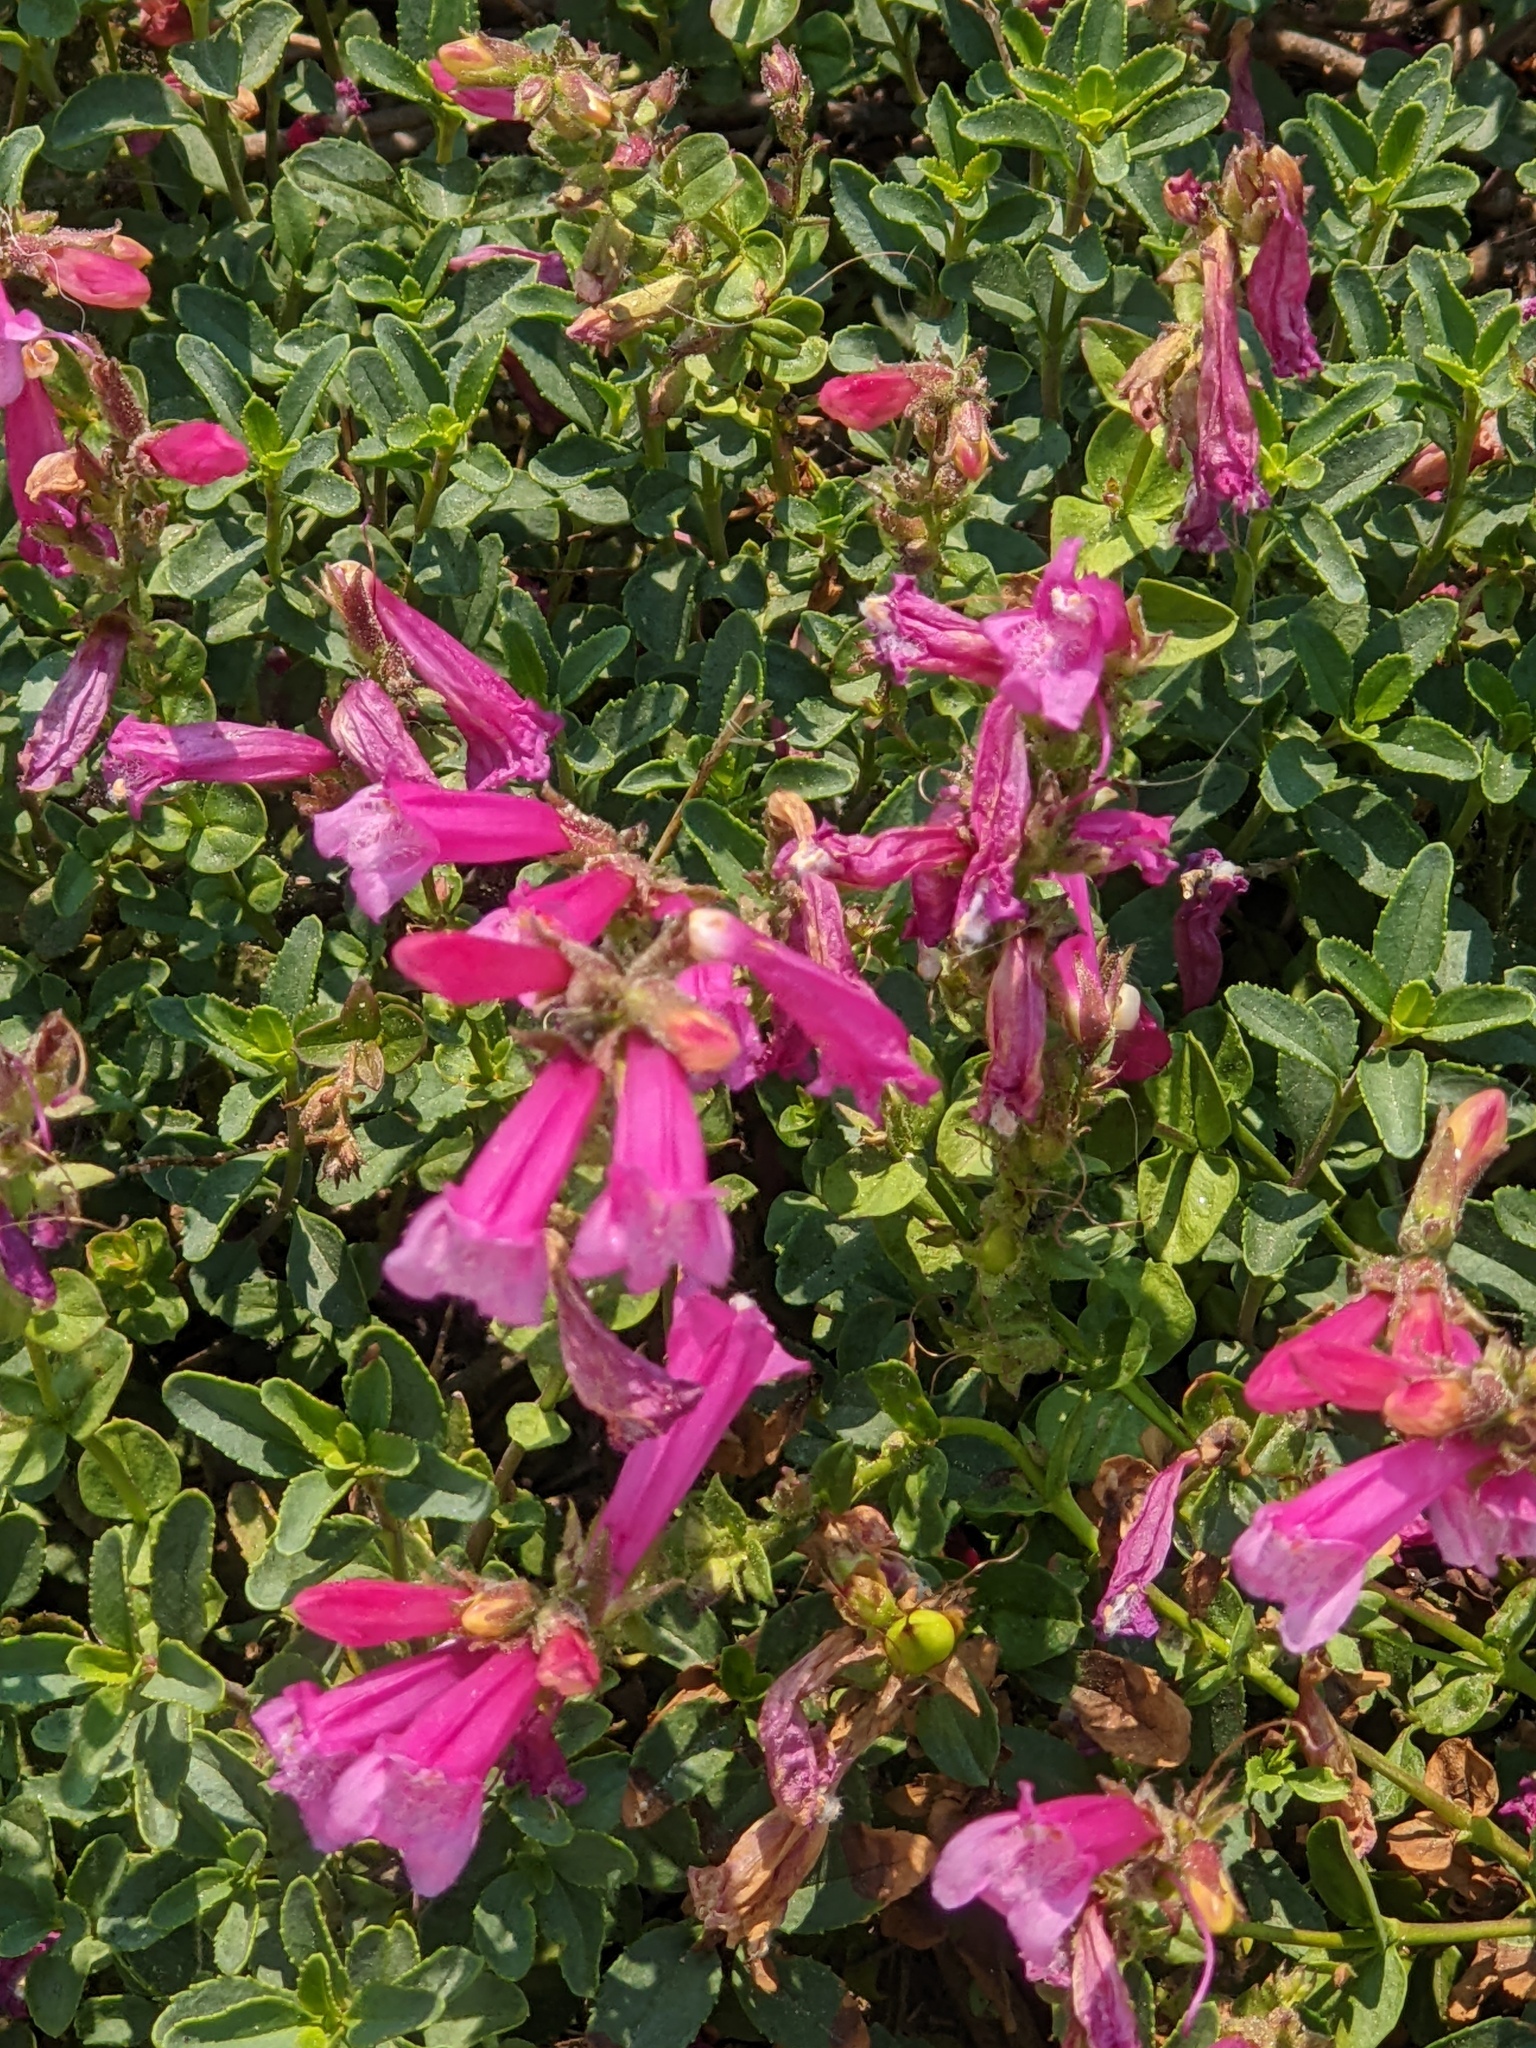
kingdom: Plantae
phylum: Tracheophyta
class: Magnoliopsida
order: Lamiales
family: Plantaginaceae
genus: Penstemon
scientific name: Penstemon newberryi
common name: Mountain-pride
